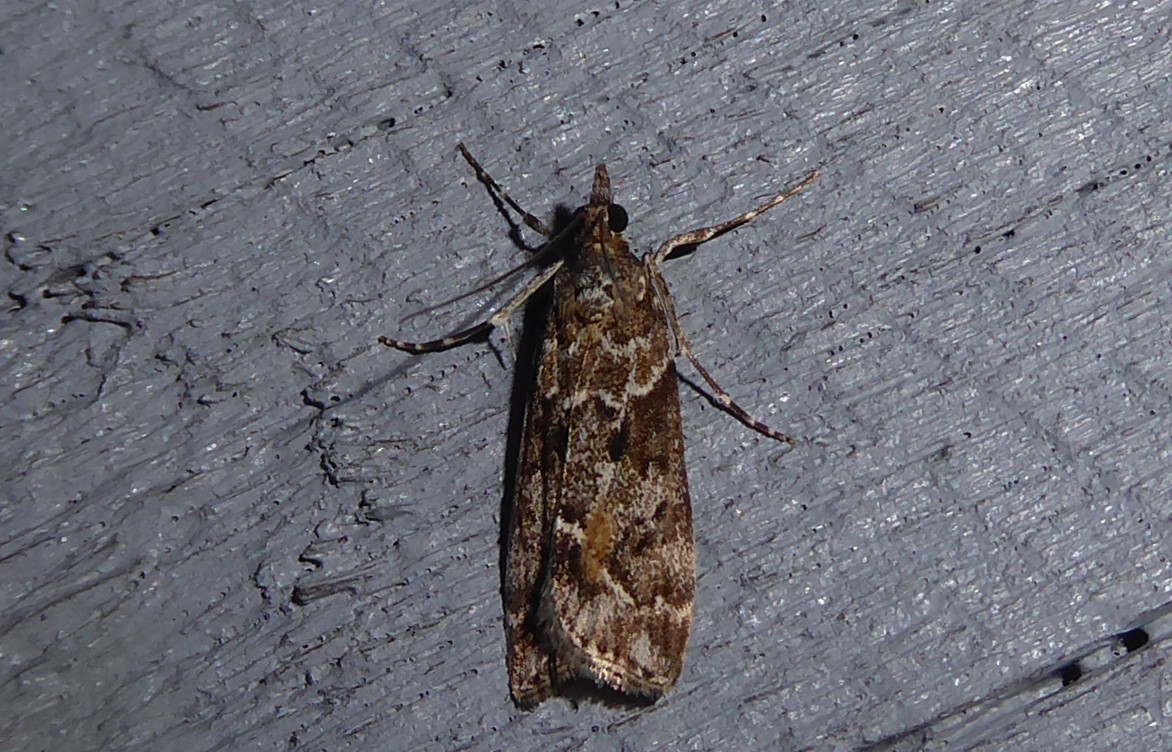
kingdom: Animalia
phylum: Arthropoda
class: Insecta
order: Lepidoptera
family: Crambidae
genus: Eudonia
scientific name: Eudonia submarginalis
